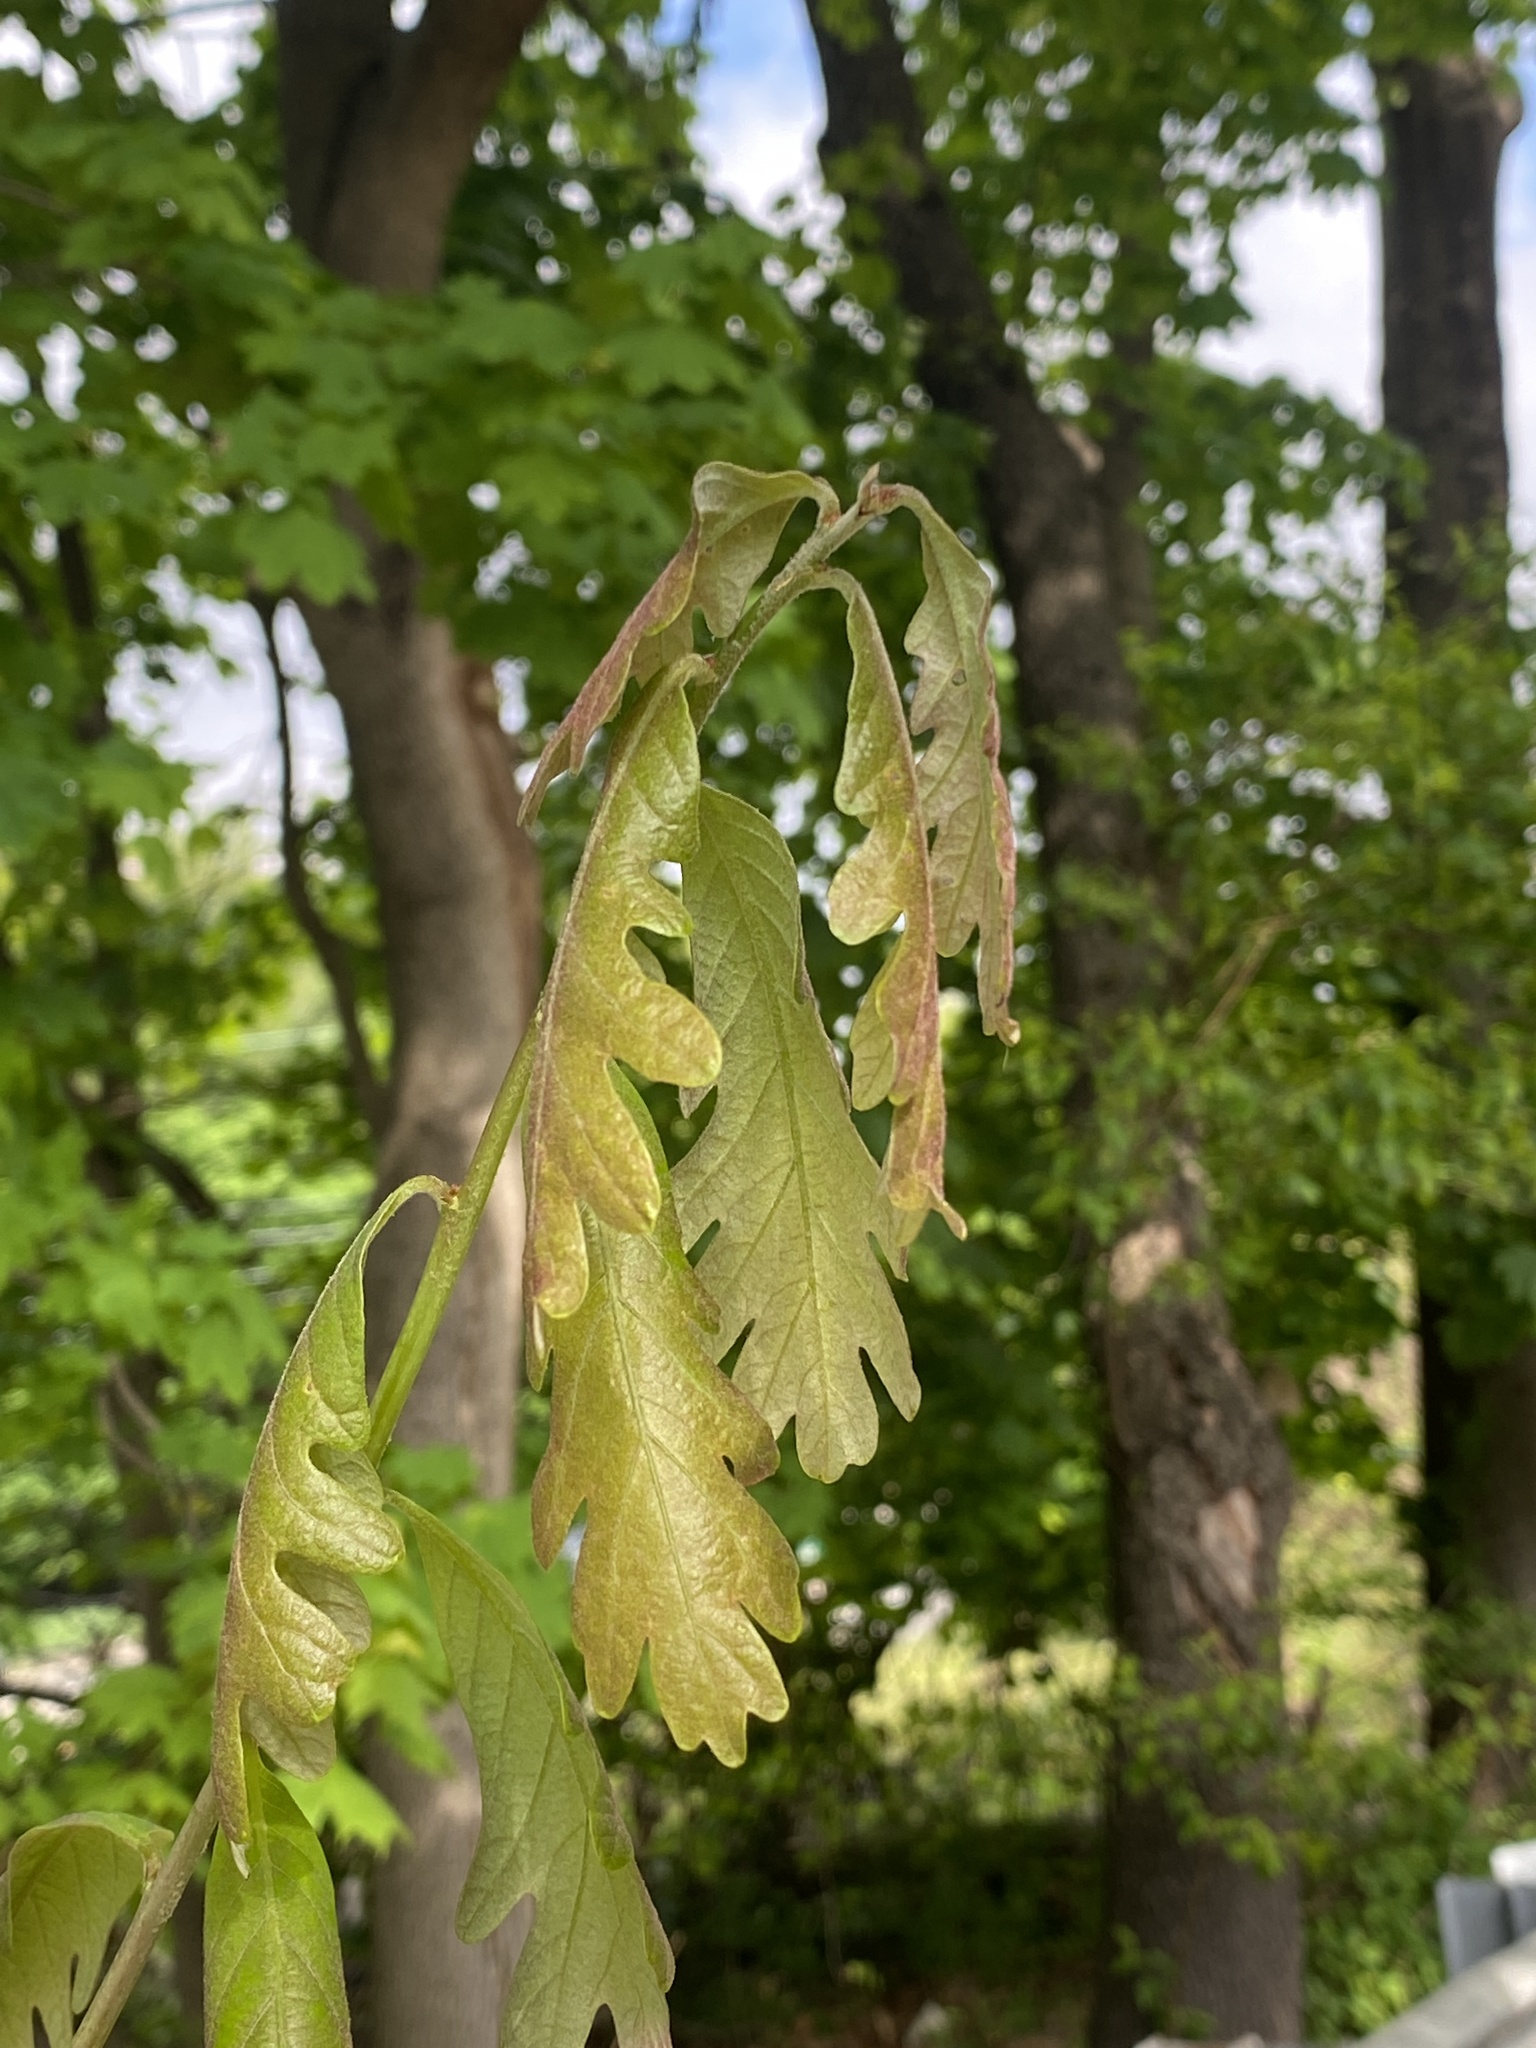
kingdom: Plantae
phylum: Tracheophyta
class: Magnoliopsida
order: Fagales
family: Fagaceae
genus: Quercus
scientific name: Quercus alba
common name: White oak
